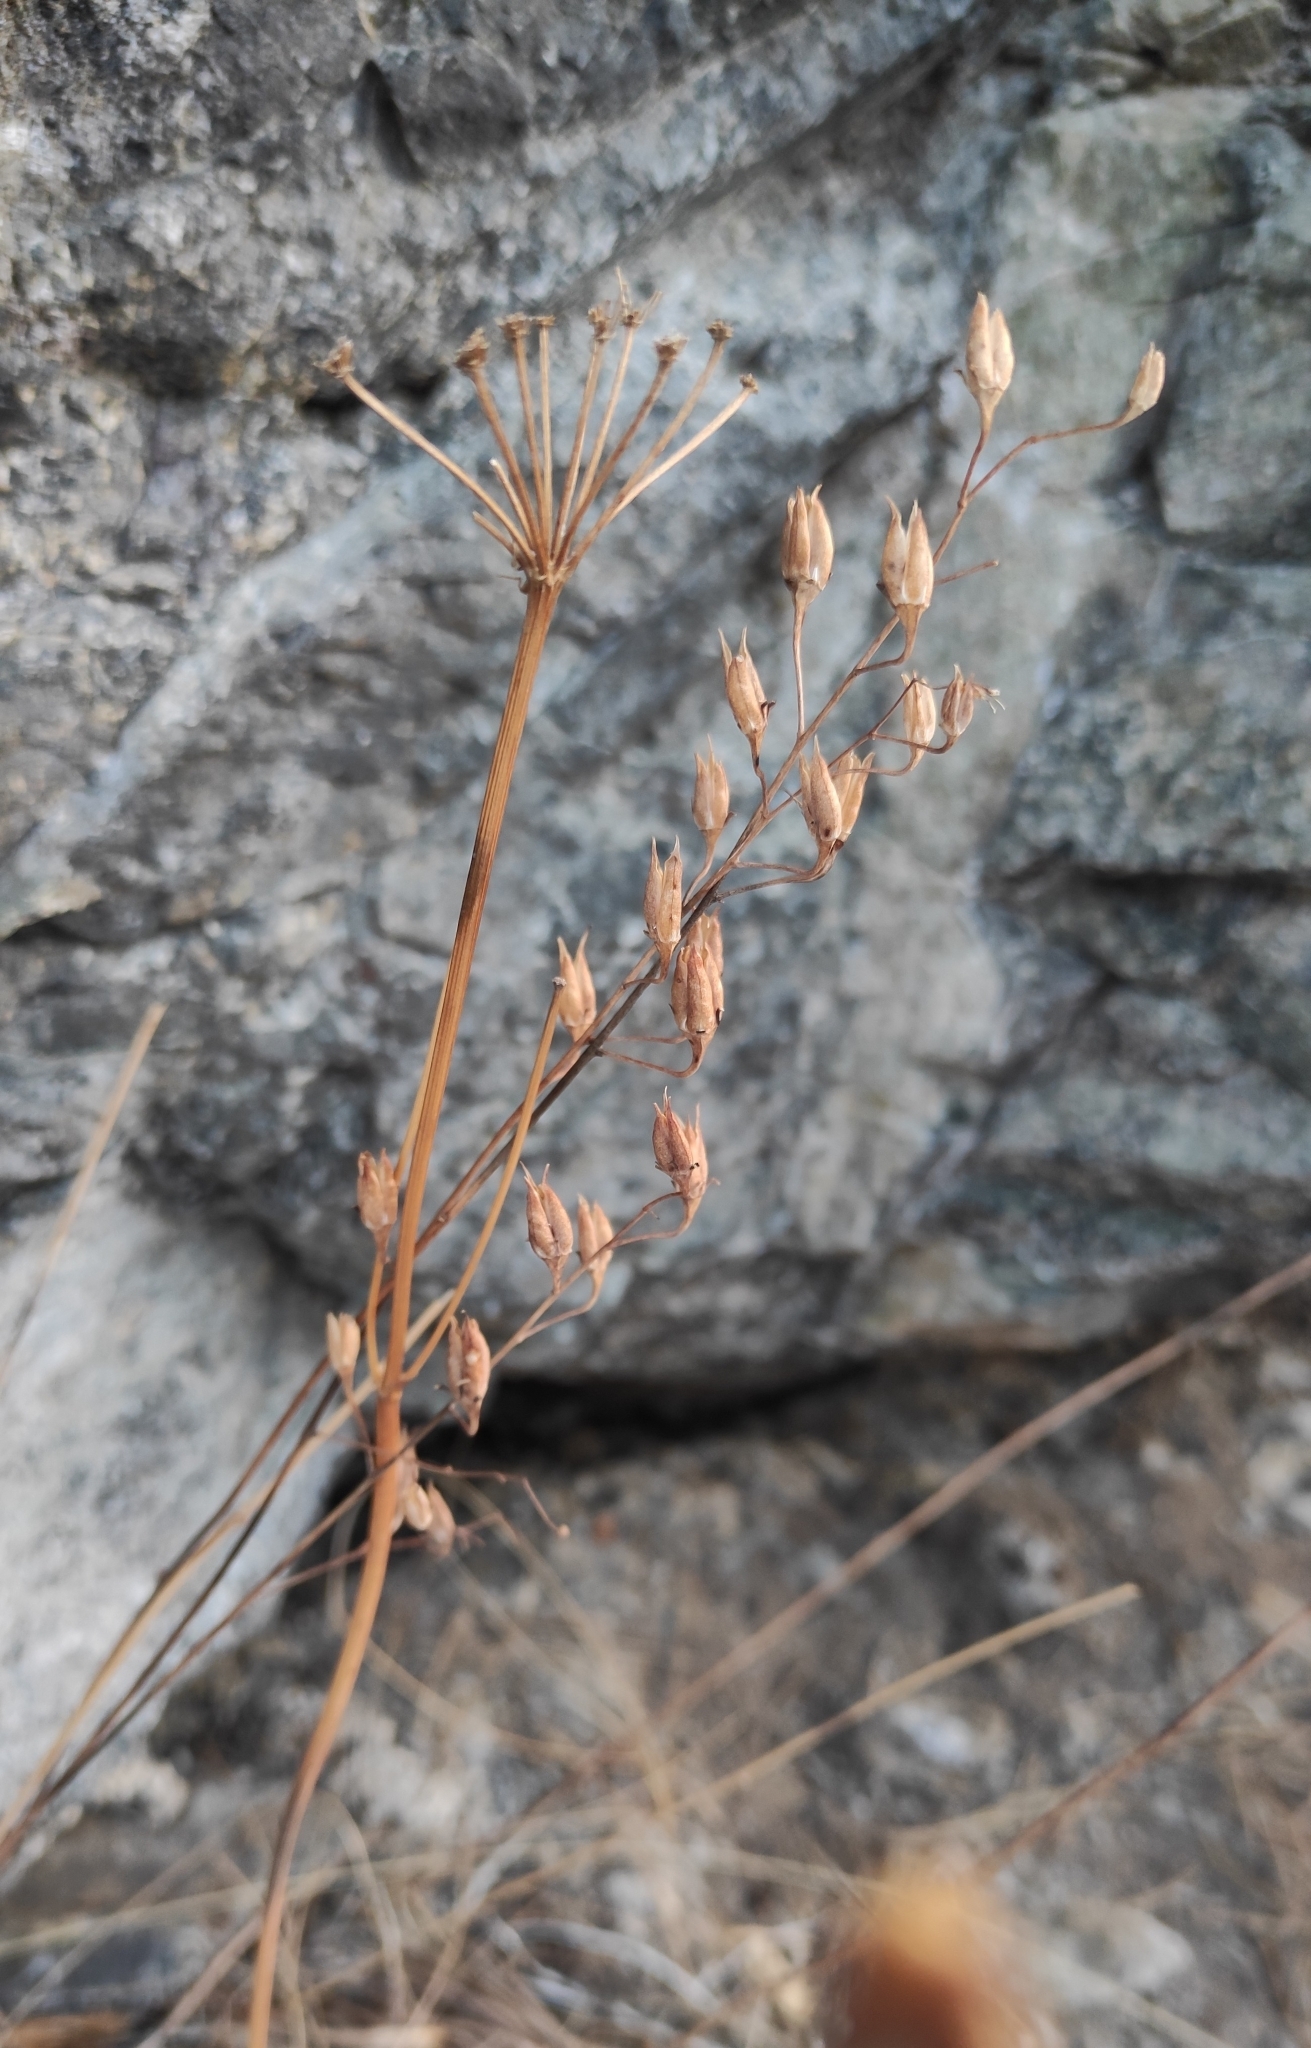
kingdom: Plantae
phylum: Tracheophyta
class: Liliopsida
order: Liliales
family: Melanthiaceae
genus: Anticlea
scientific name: Anticlea sibirica
